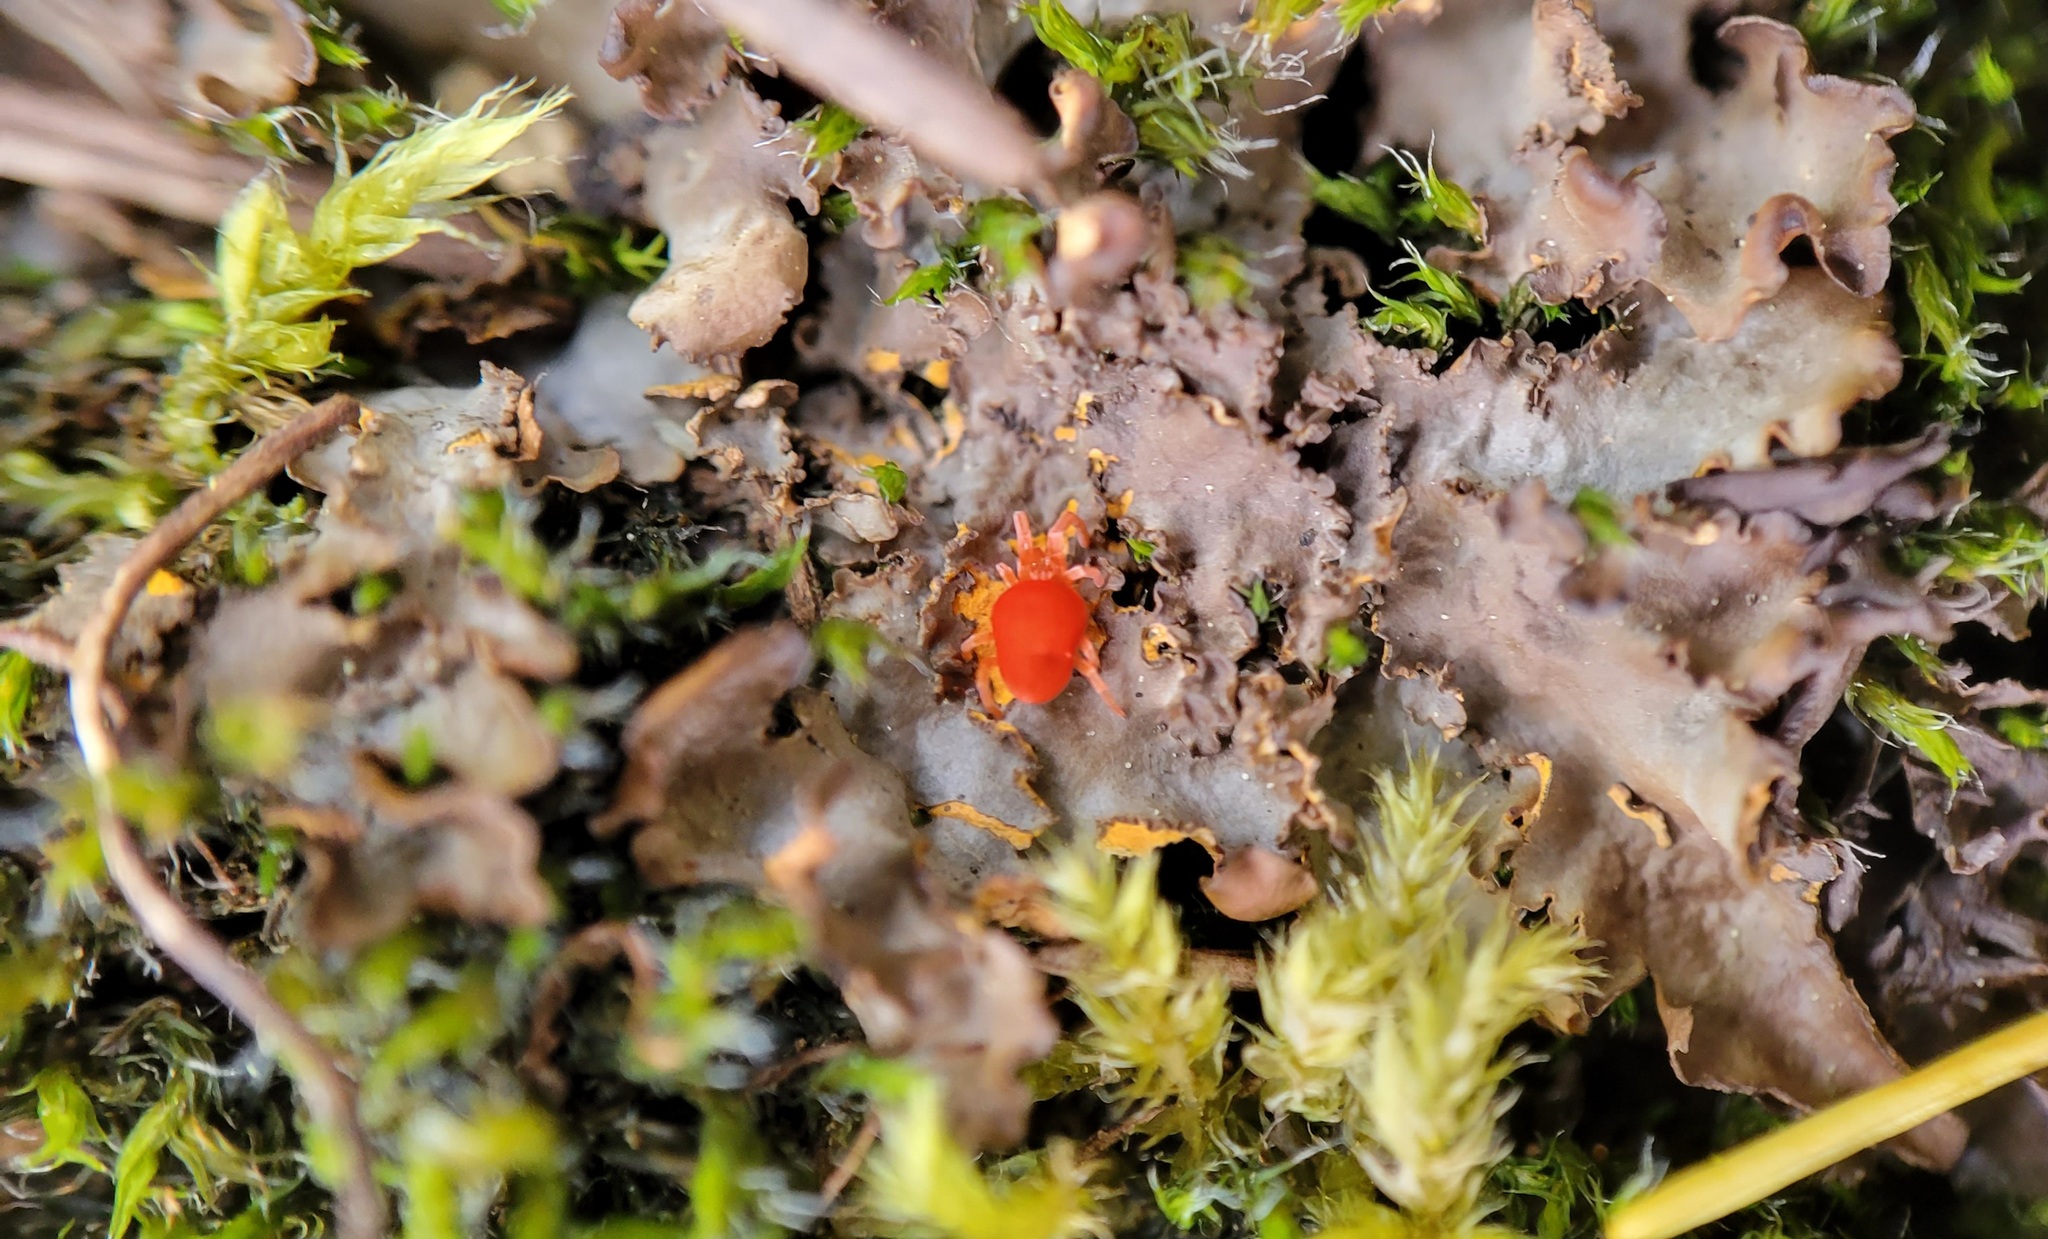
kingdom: Fungi
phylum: Ascomycota
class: Lecanoromycetes
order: Peltigerales
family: Nephromataceae
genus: Nephroma
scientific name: Nephroma laevigatum
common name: Mustard kidney lichen
